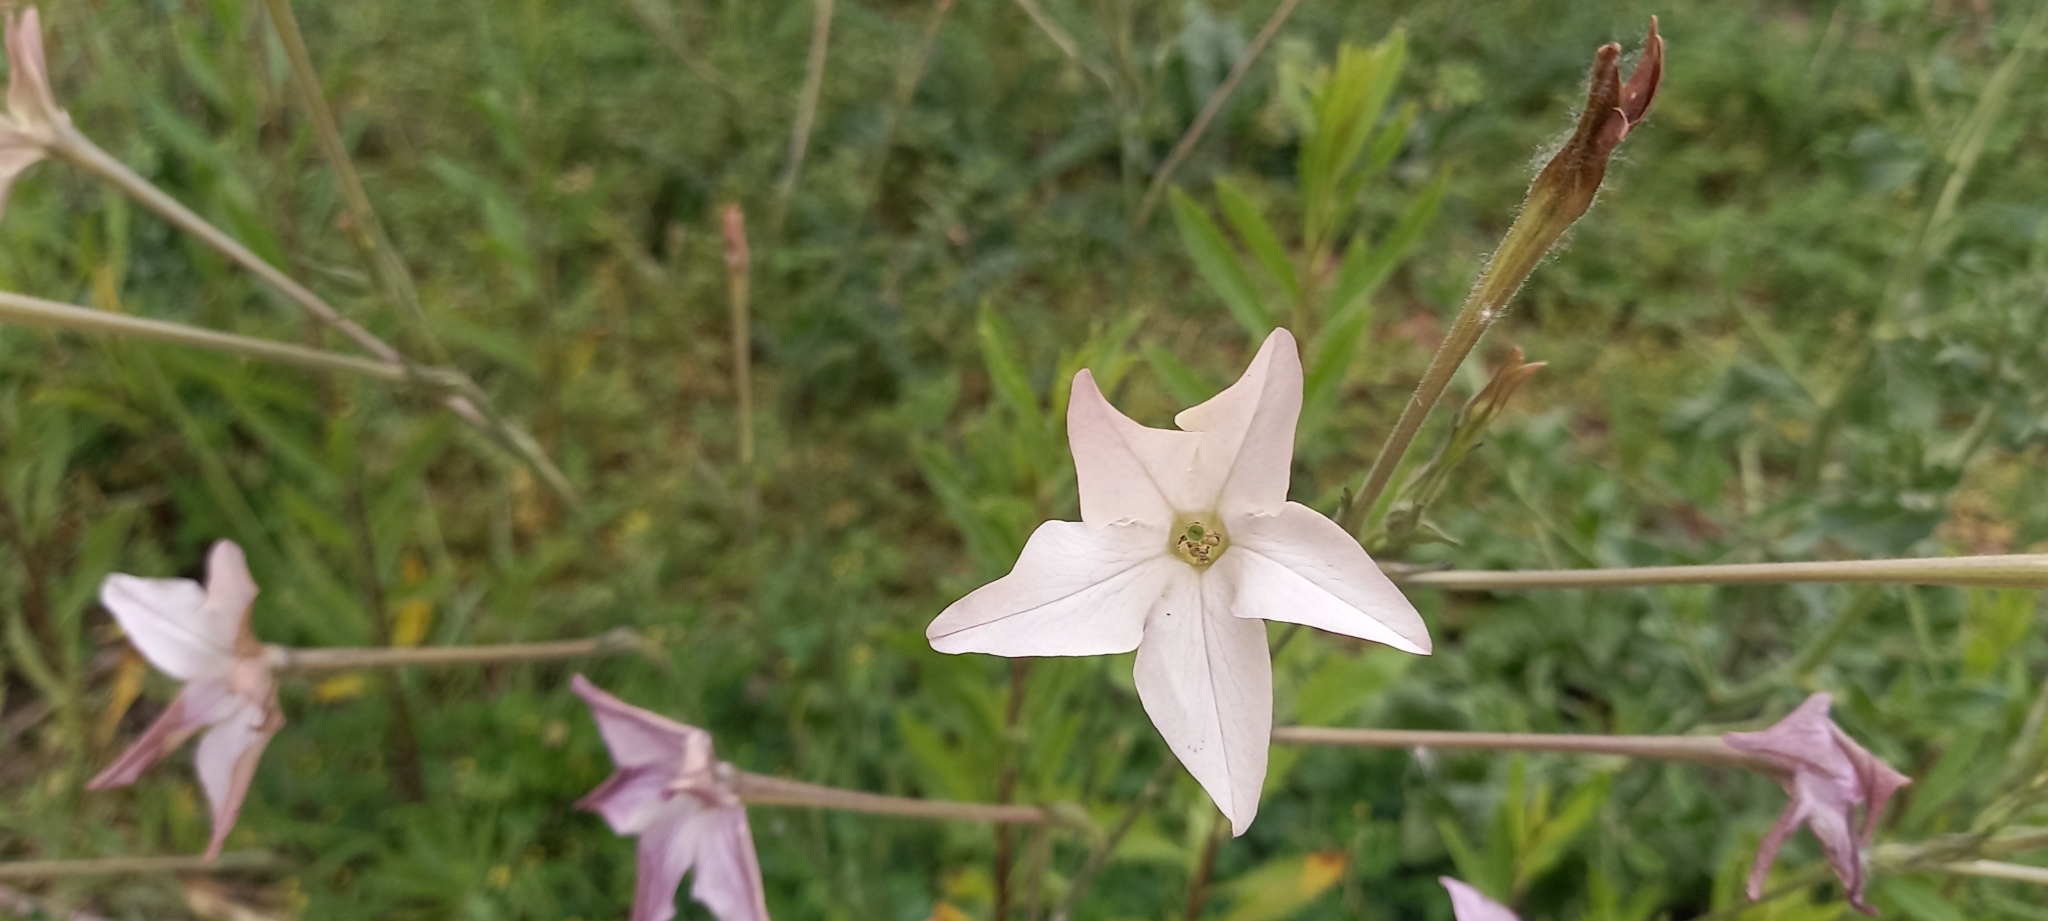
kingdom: Plantae
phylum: Tracheophyta
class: Magnoliopsida
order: Solanales
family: Solanaceae
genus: Nicotiana
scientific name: Nicotiana longiflora
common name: Long-flowered tobacco
